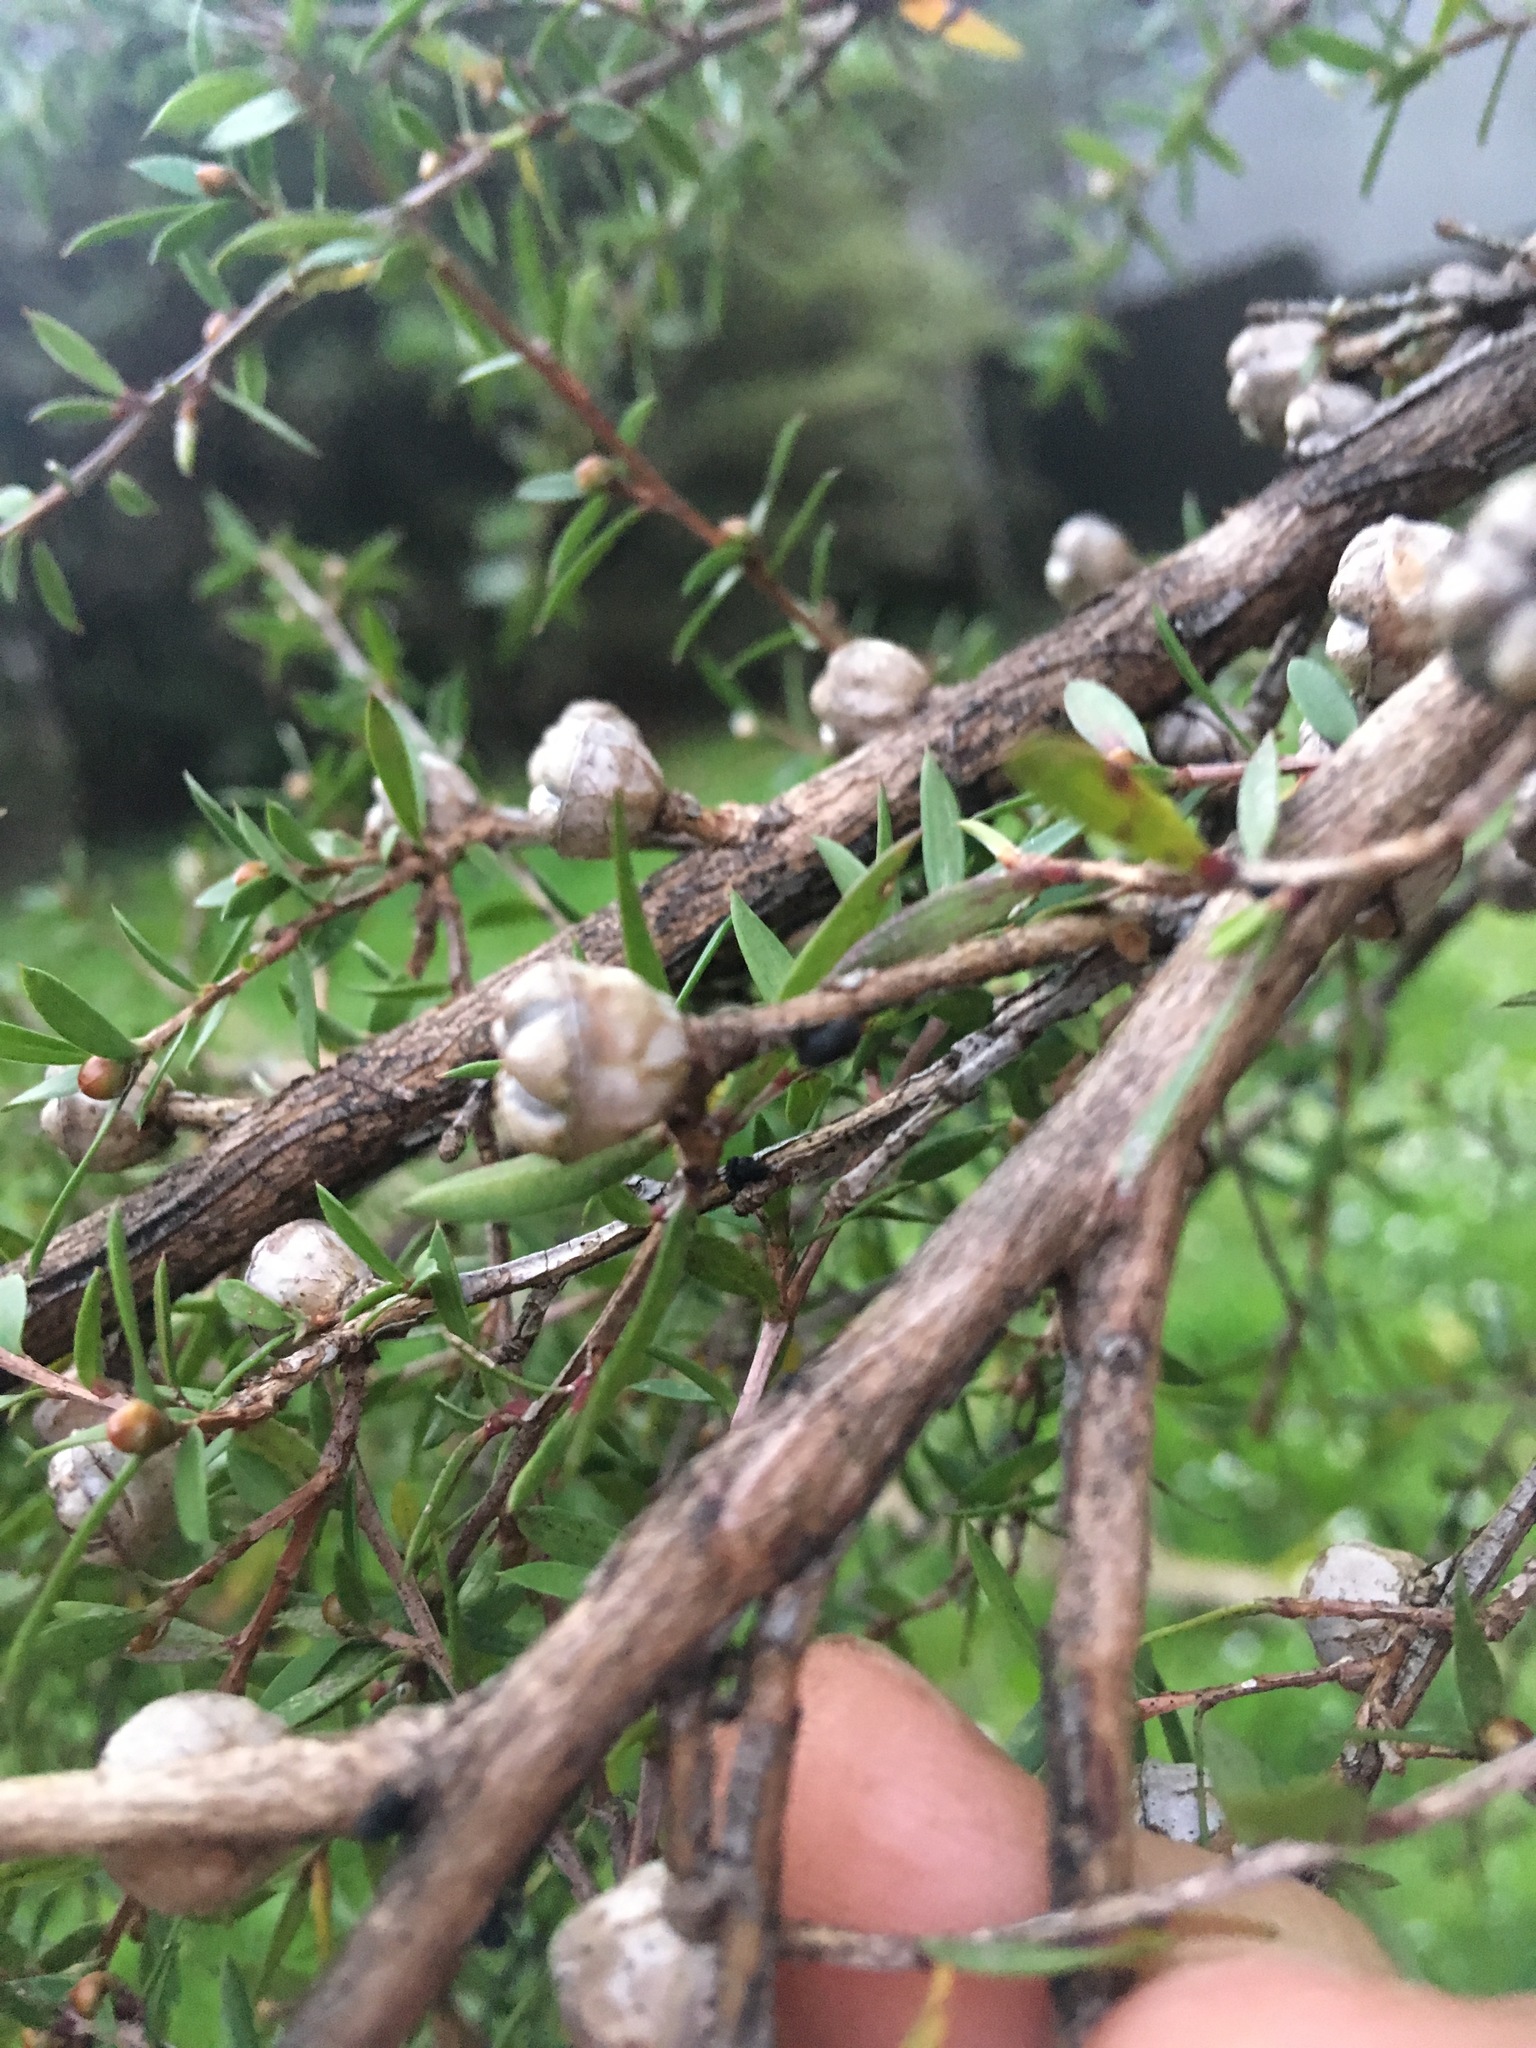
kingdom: Plantae
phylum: Tracheophyta
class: Magnoliopsida
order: Myrtales
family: Myrtaceae
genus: Leptospermum
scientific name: Leptospermum scoparium
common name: Broom tea-tree
